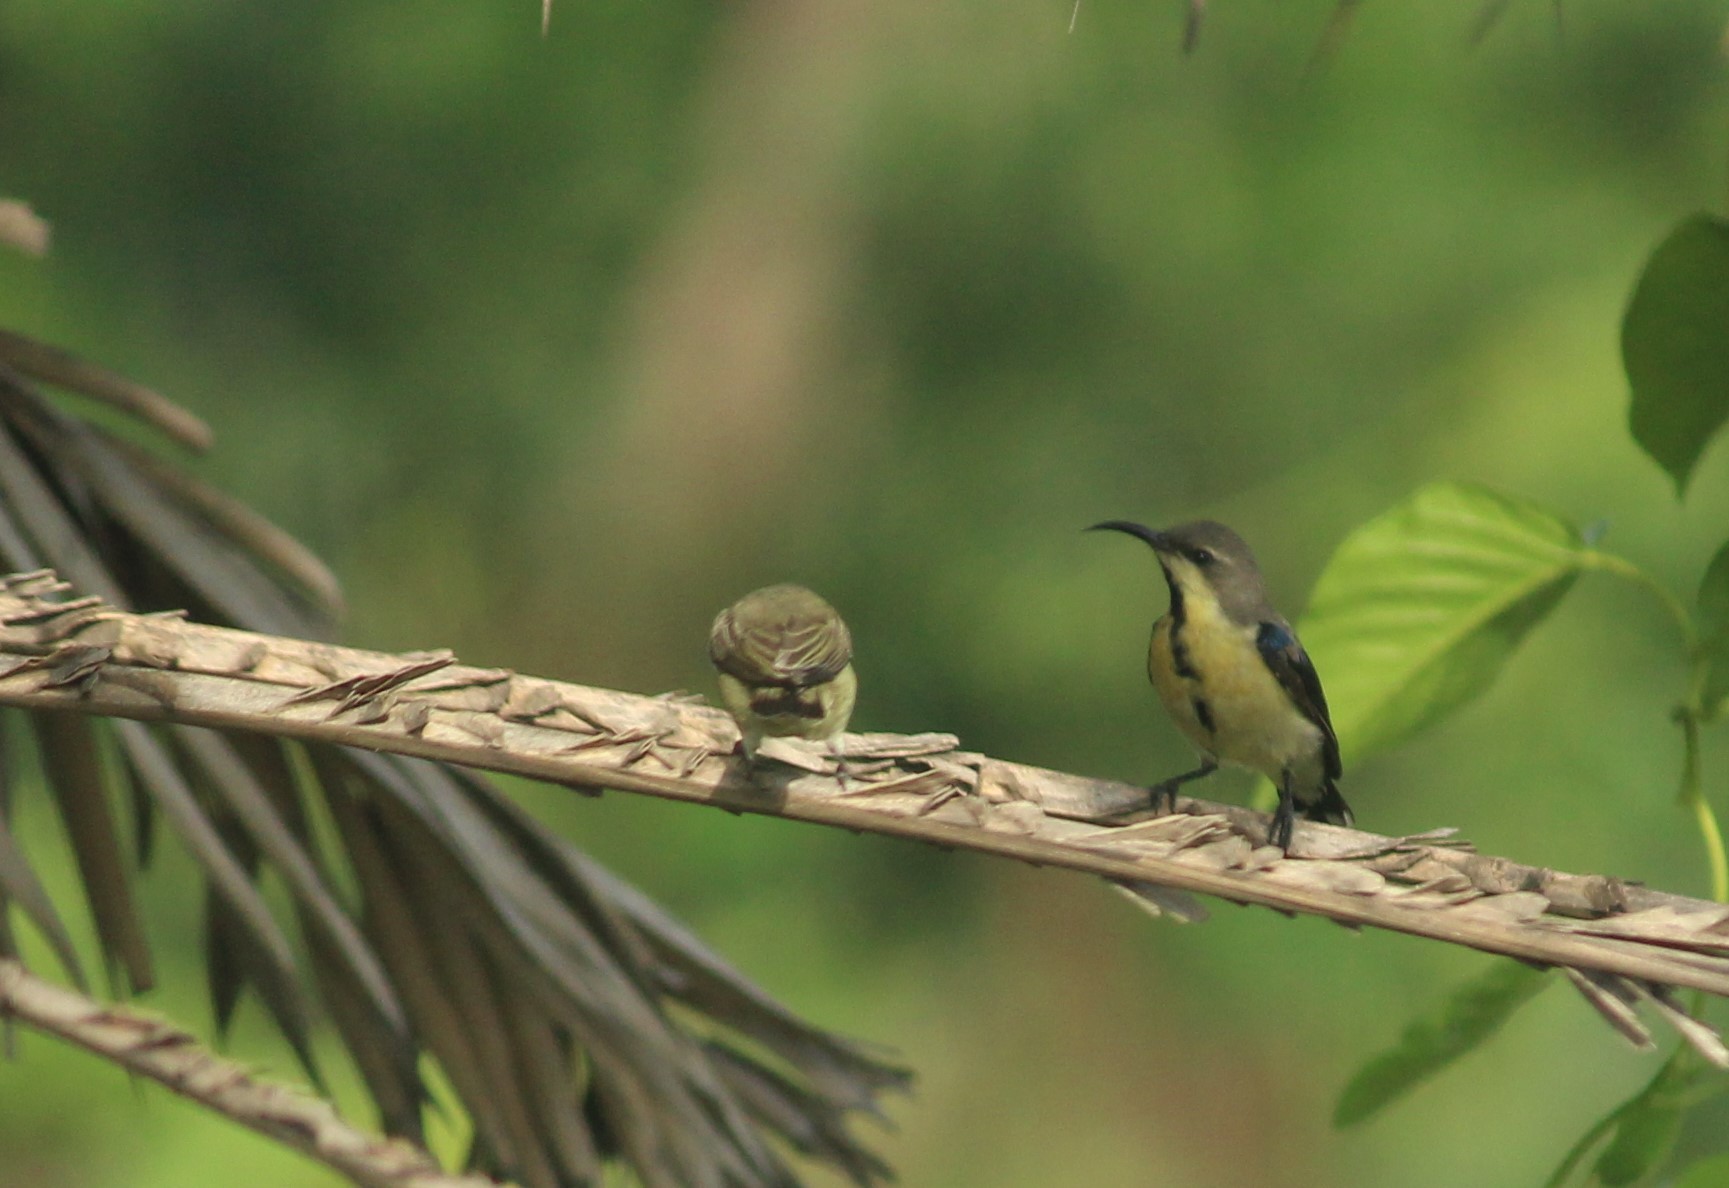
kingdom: Animalia
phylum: Chordata
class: Aves
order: Passeriformes
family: Nectariniidae
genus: Cinnyris
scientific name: Cinnyris asiaticus
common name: Purple sunbird
